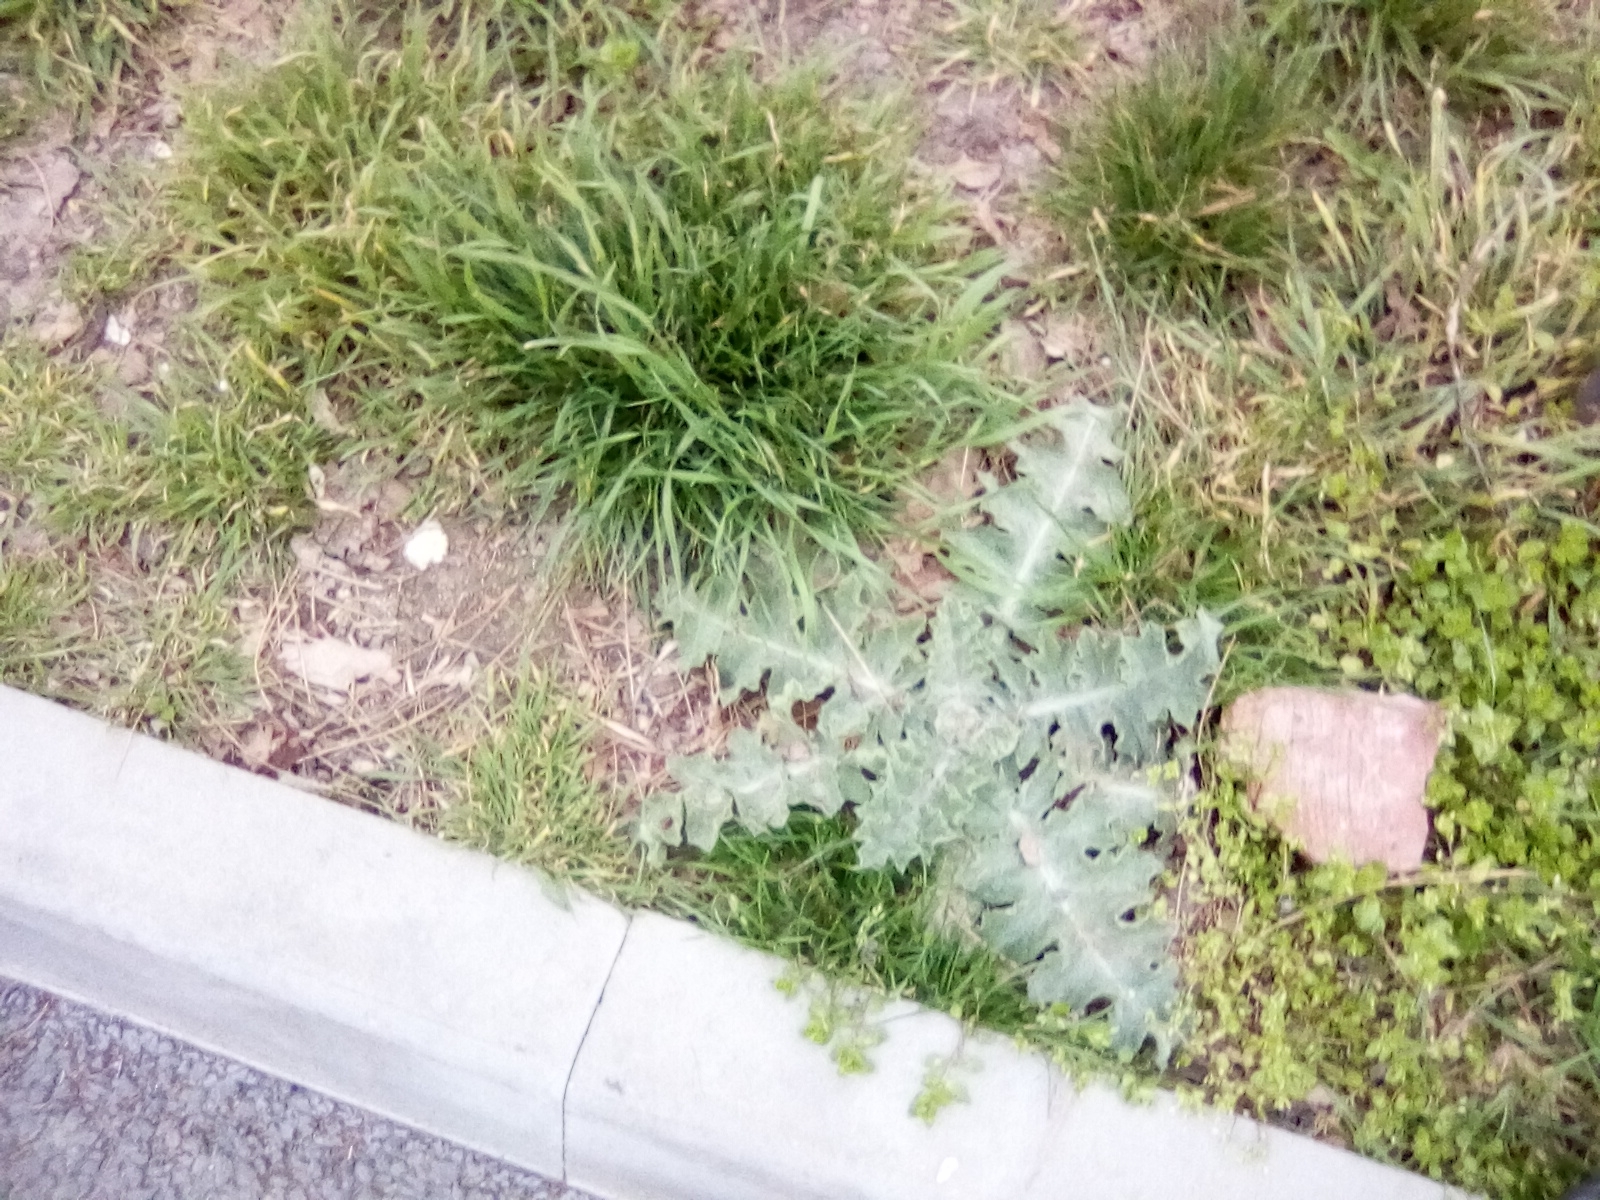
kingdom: Plantae
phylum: Tracheophyta
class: Magnoliopsida
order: Asterales
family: Asteraceae
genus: Onopordum
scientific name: Onopordum acanthium
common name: Scotch thistle
